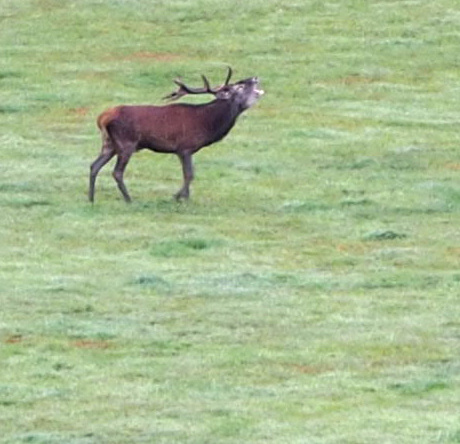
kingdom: Animalia
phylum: Chordata
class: Mammalia
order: Artiodactyla
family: Cervidae
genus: Cervus
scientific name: Cervus elaphus
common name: Red deer
